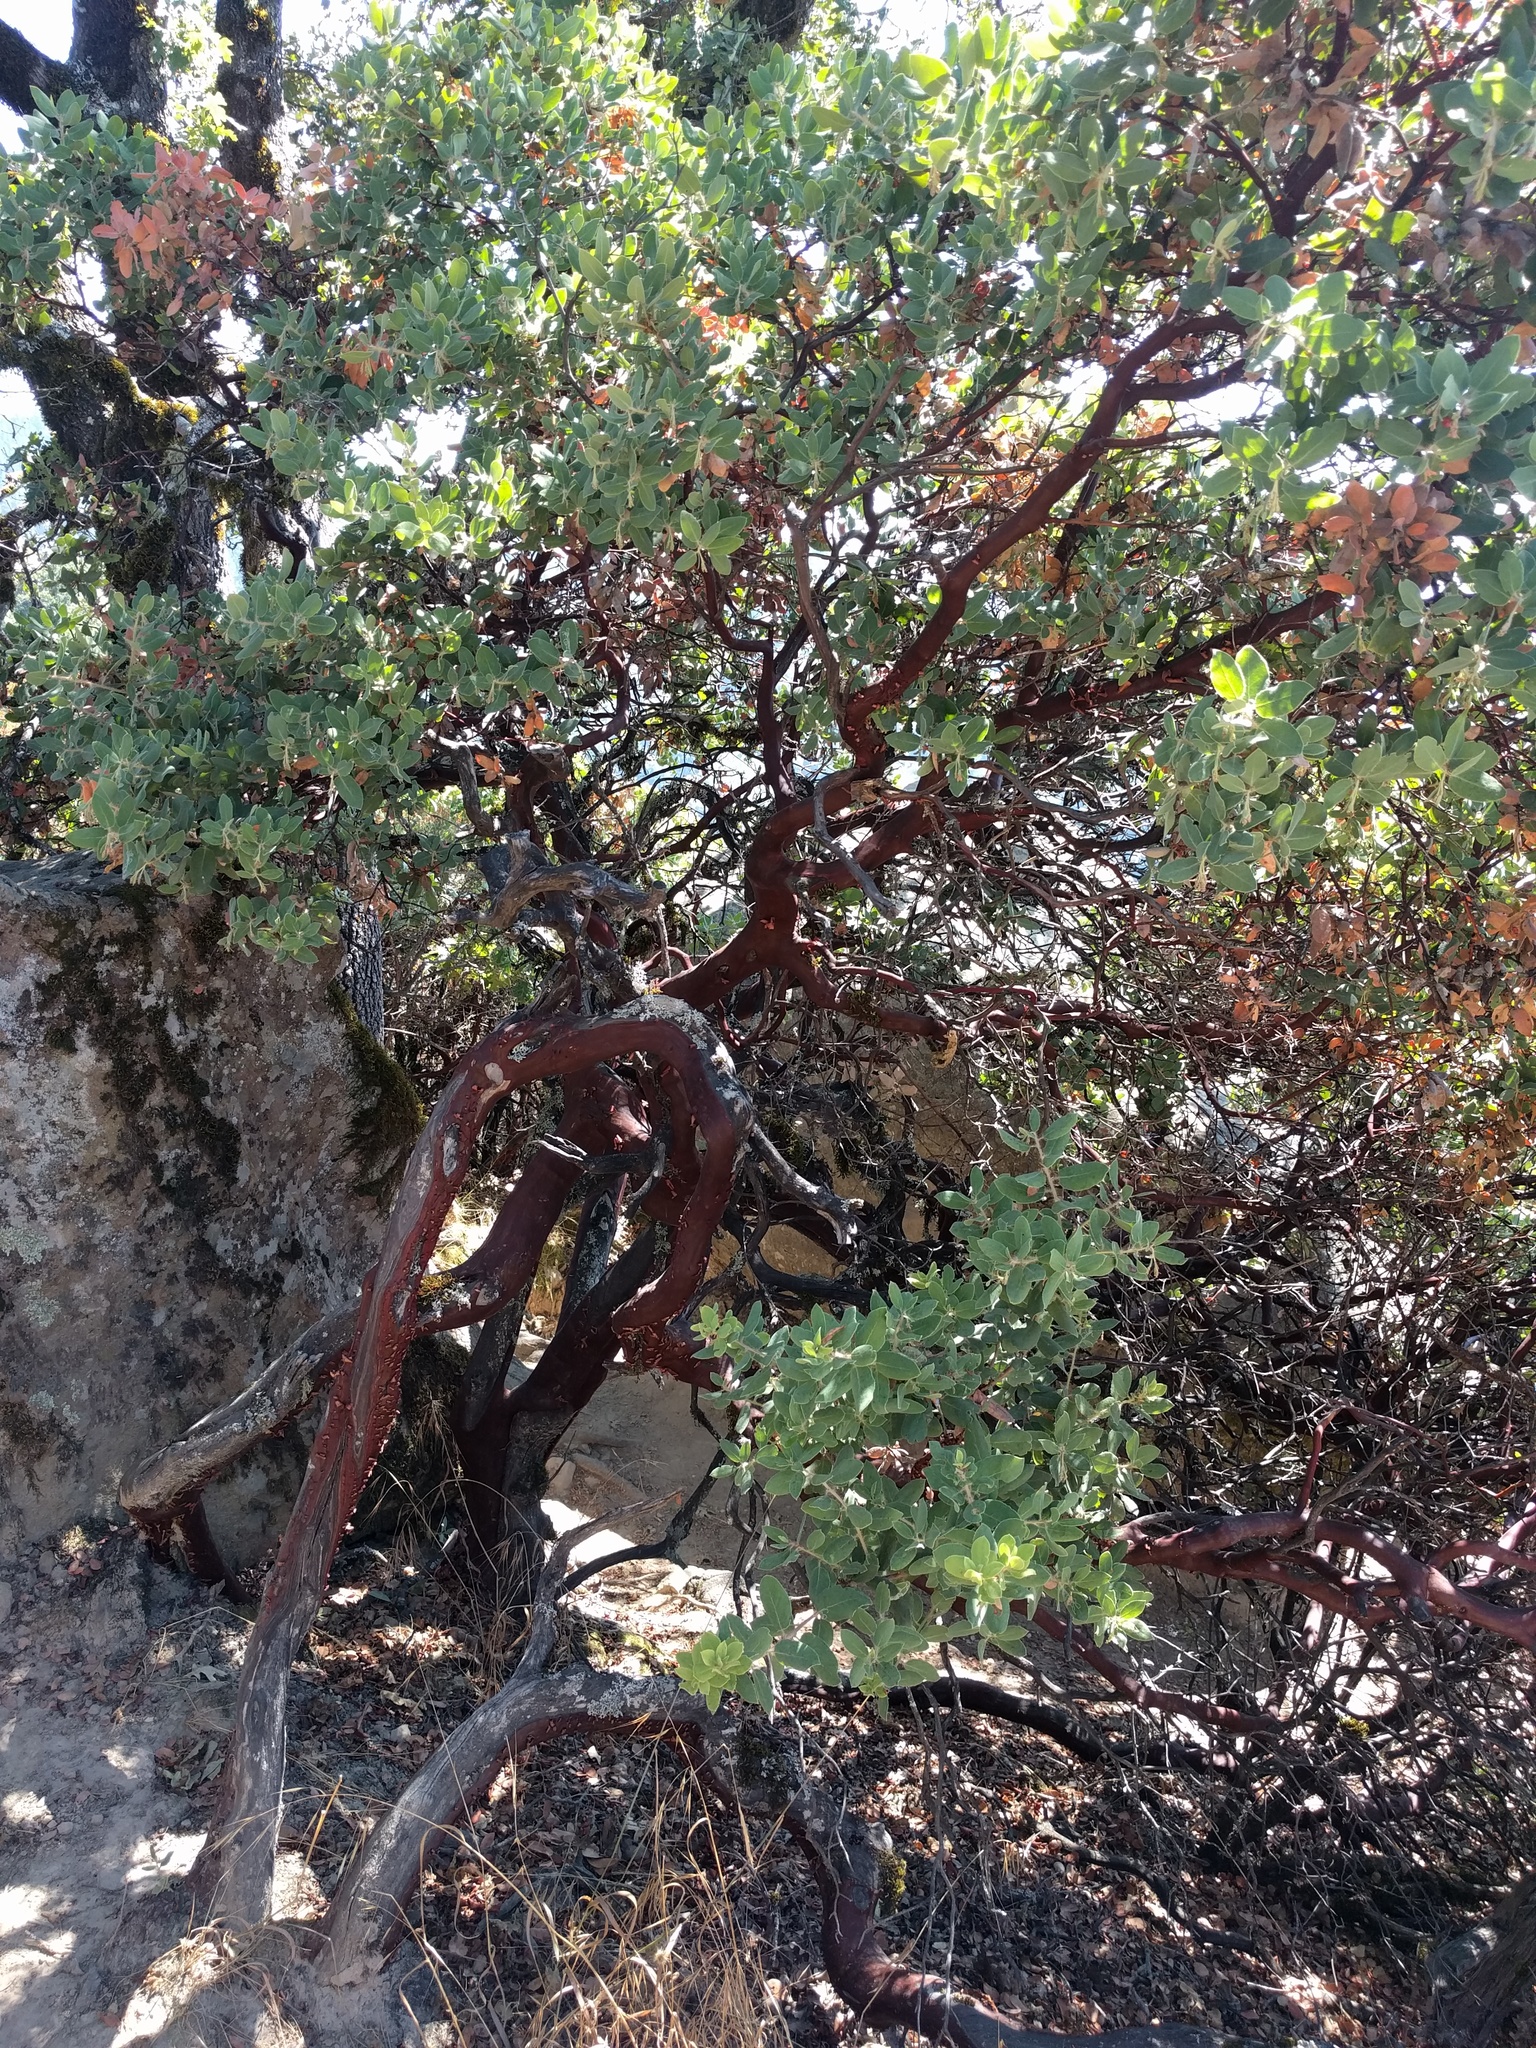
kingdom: Plantae
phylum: Tracheophyta
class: Magnoliopsida
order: Ericales
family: Ericaceae
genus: Arctostaphylos
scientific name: Arctostaphylos crustacea
